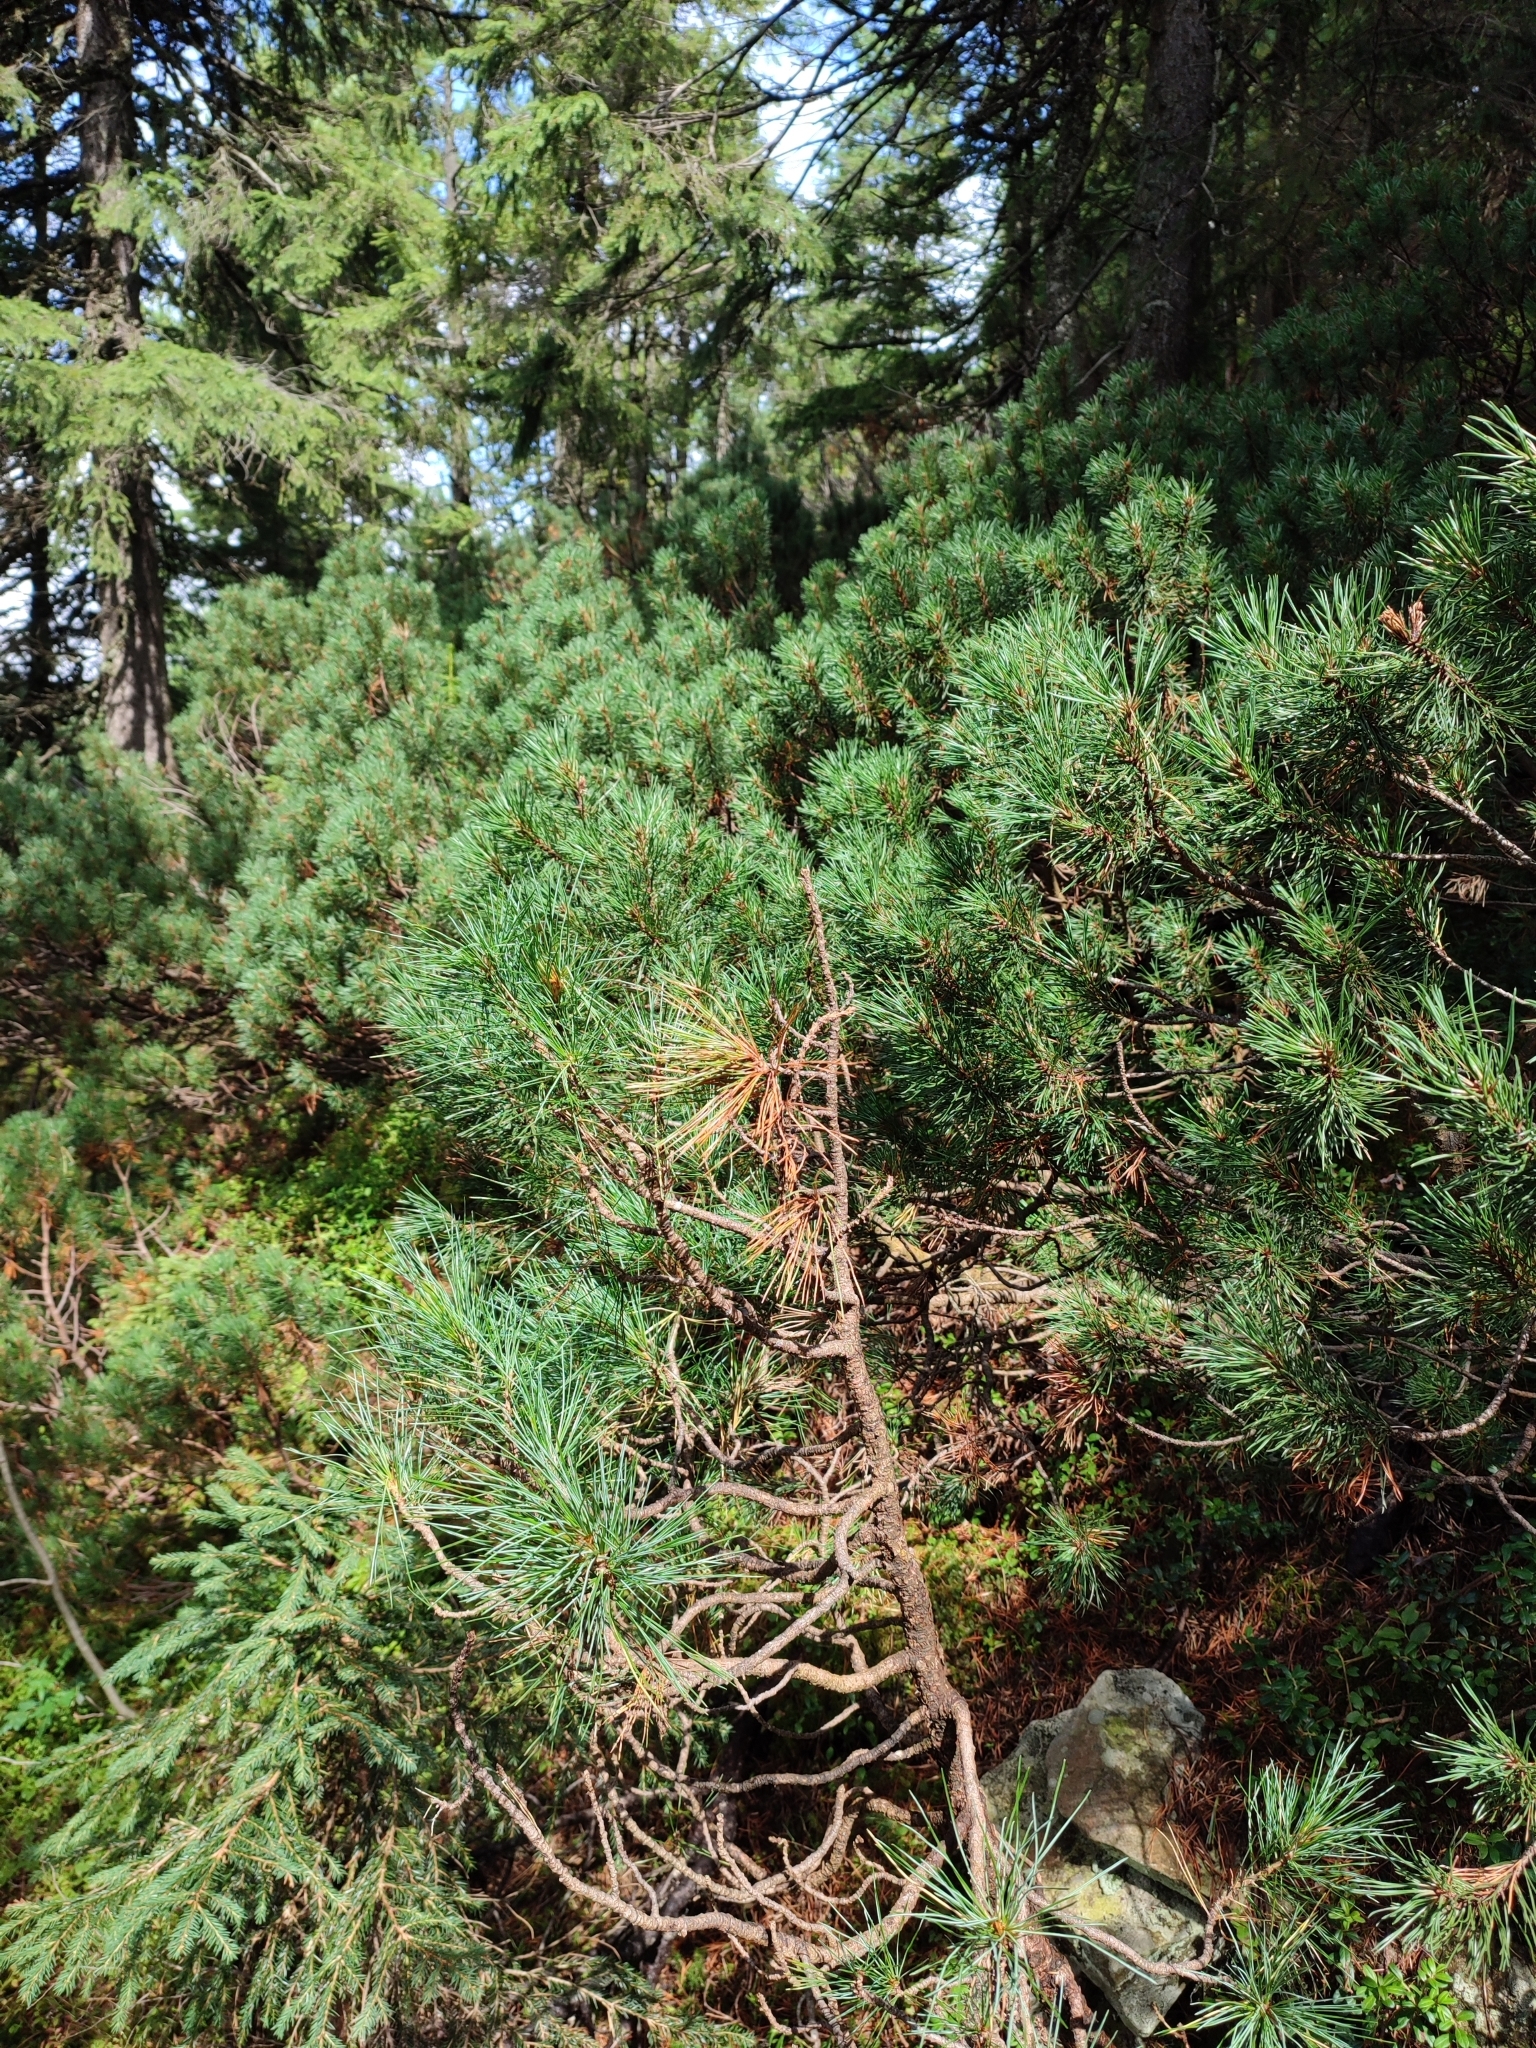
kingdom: Plantae
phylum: Tracheophyta
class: Pinopsida
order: Pinales
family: Pinaceae
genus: Pinus
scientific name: Pinus mugo
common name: Mugo pine
